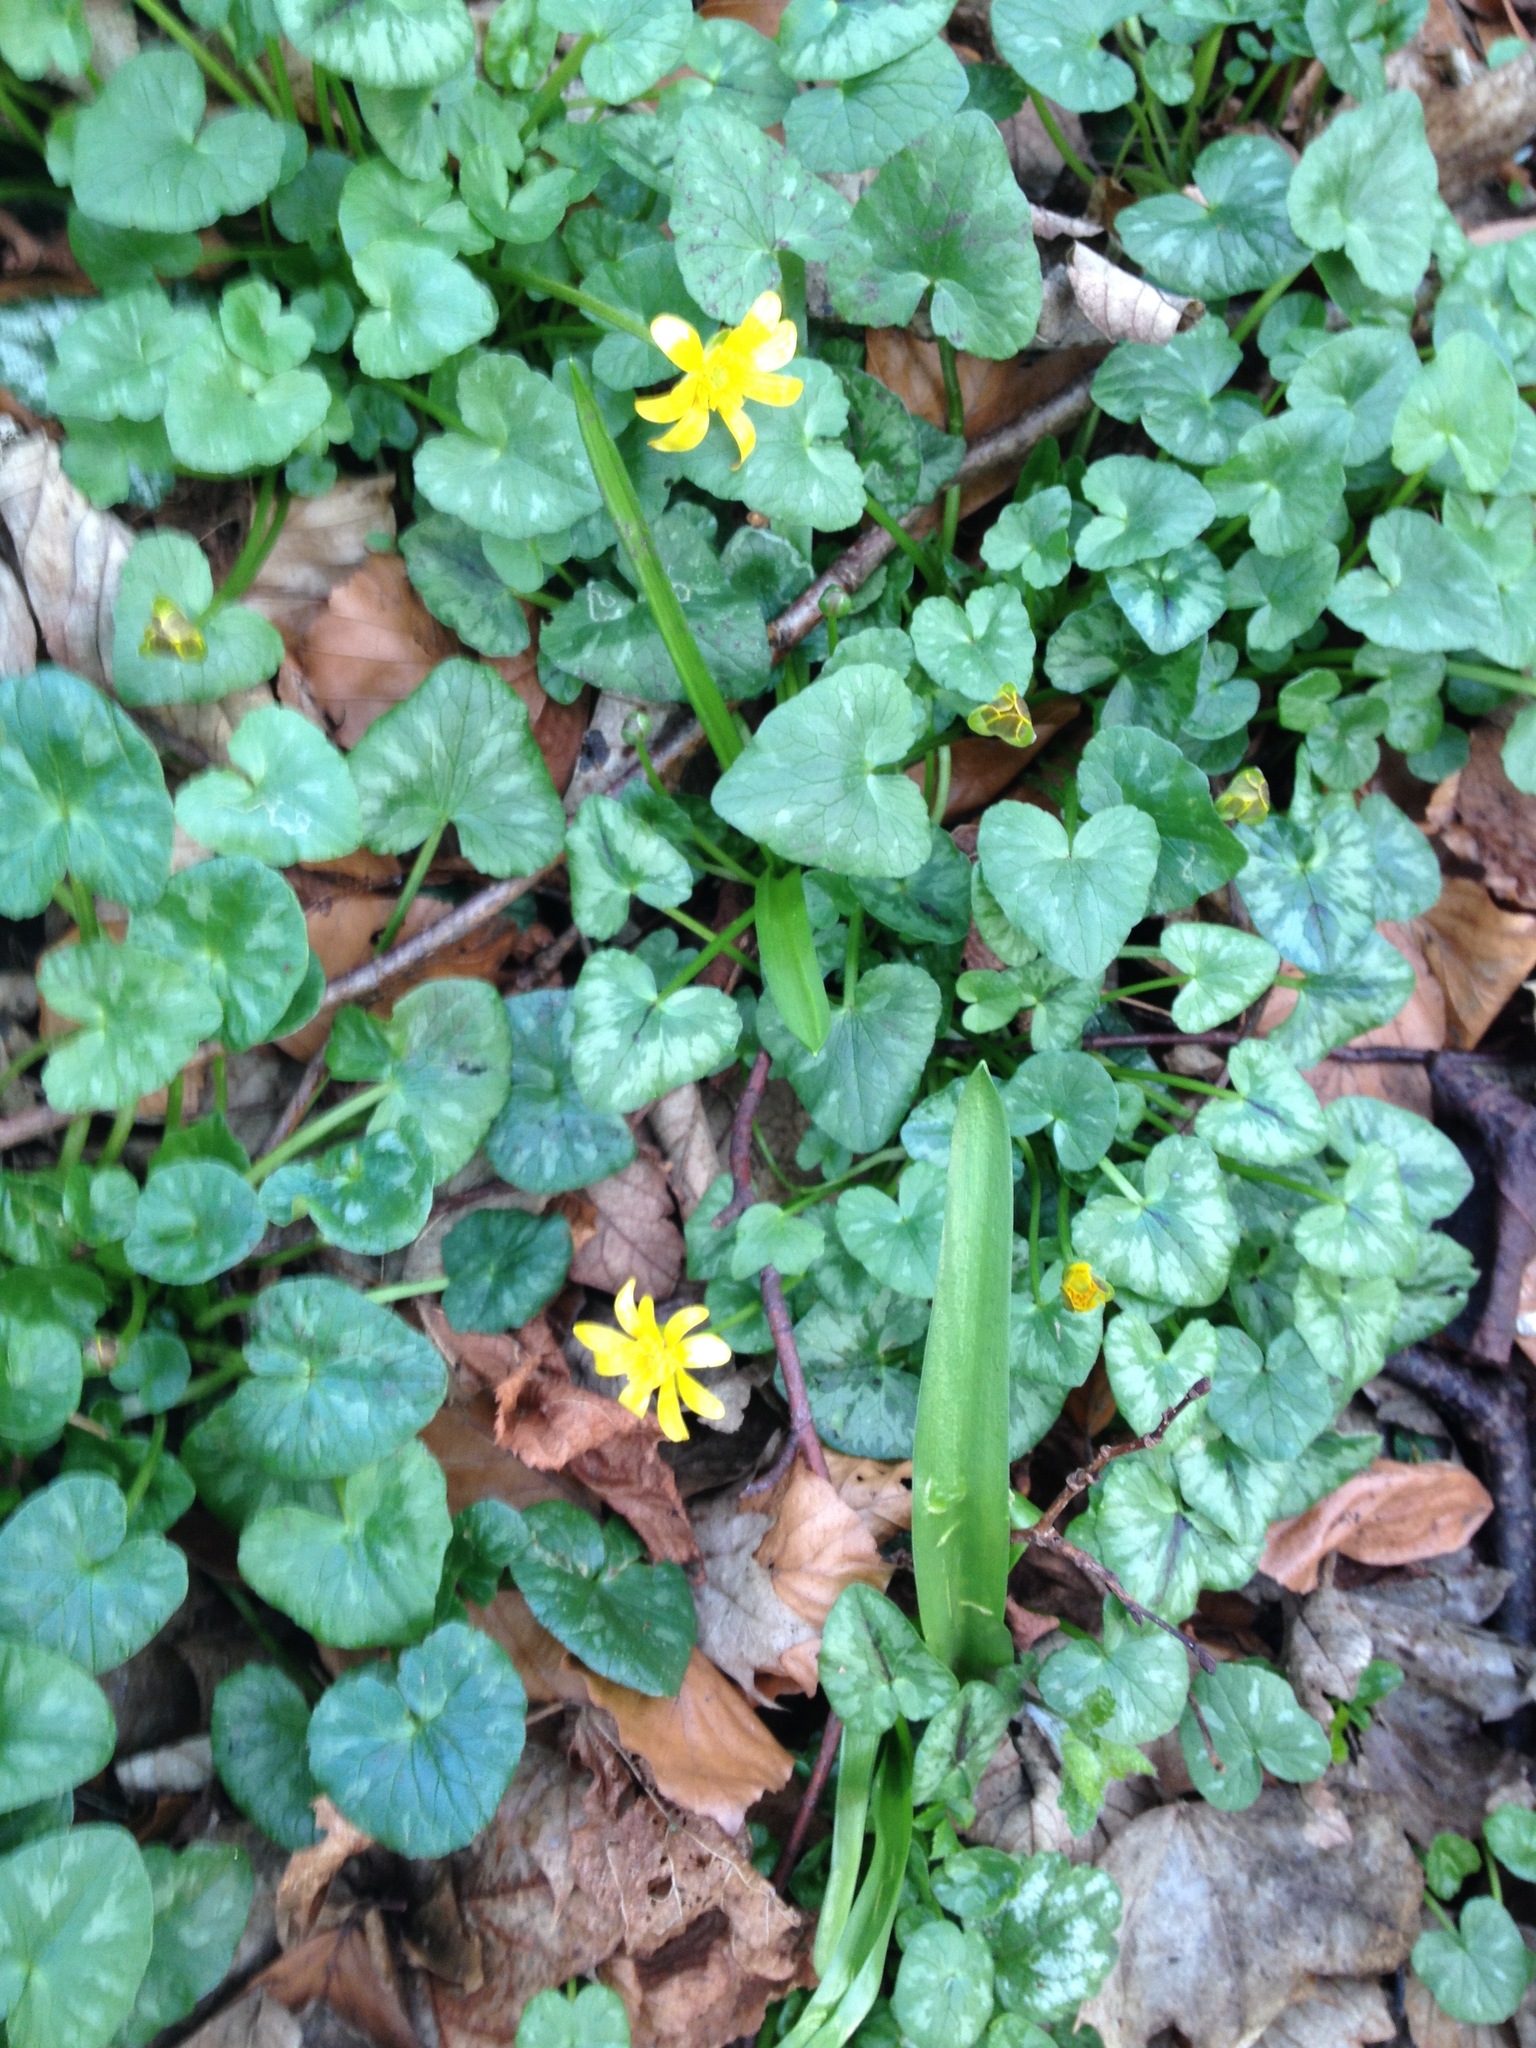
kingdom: Plantae
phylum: Tracheophyta
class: Magnoliopsida
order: Ranunculales
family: Ranunculaceae
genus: Ficaria
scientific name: Ficaria verna
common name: Lesser celandine
